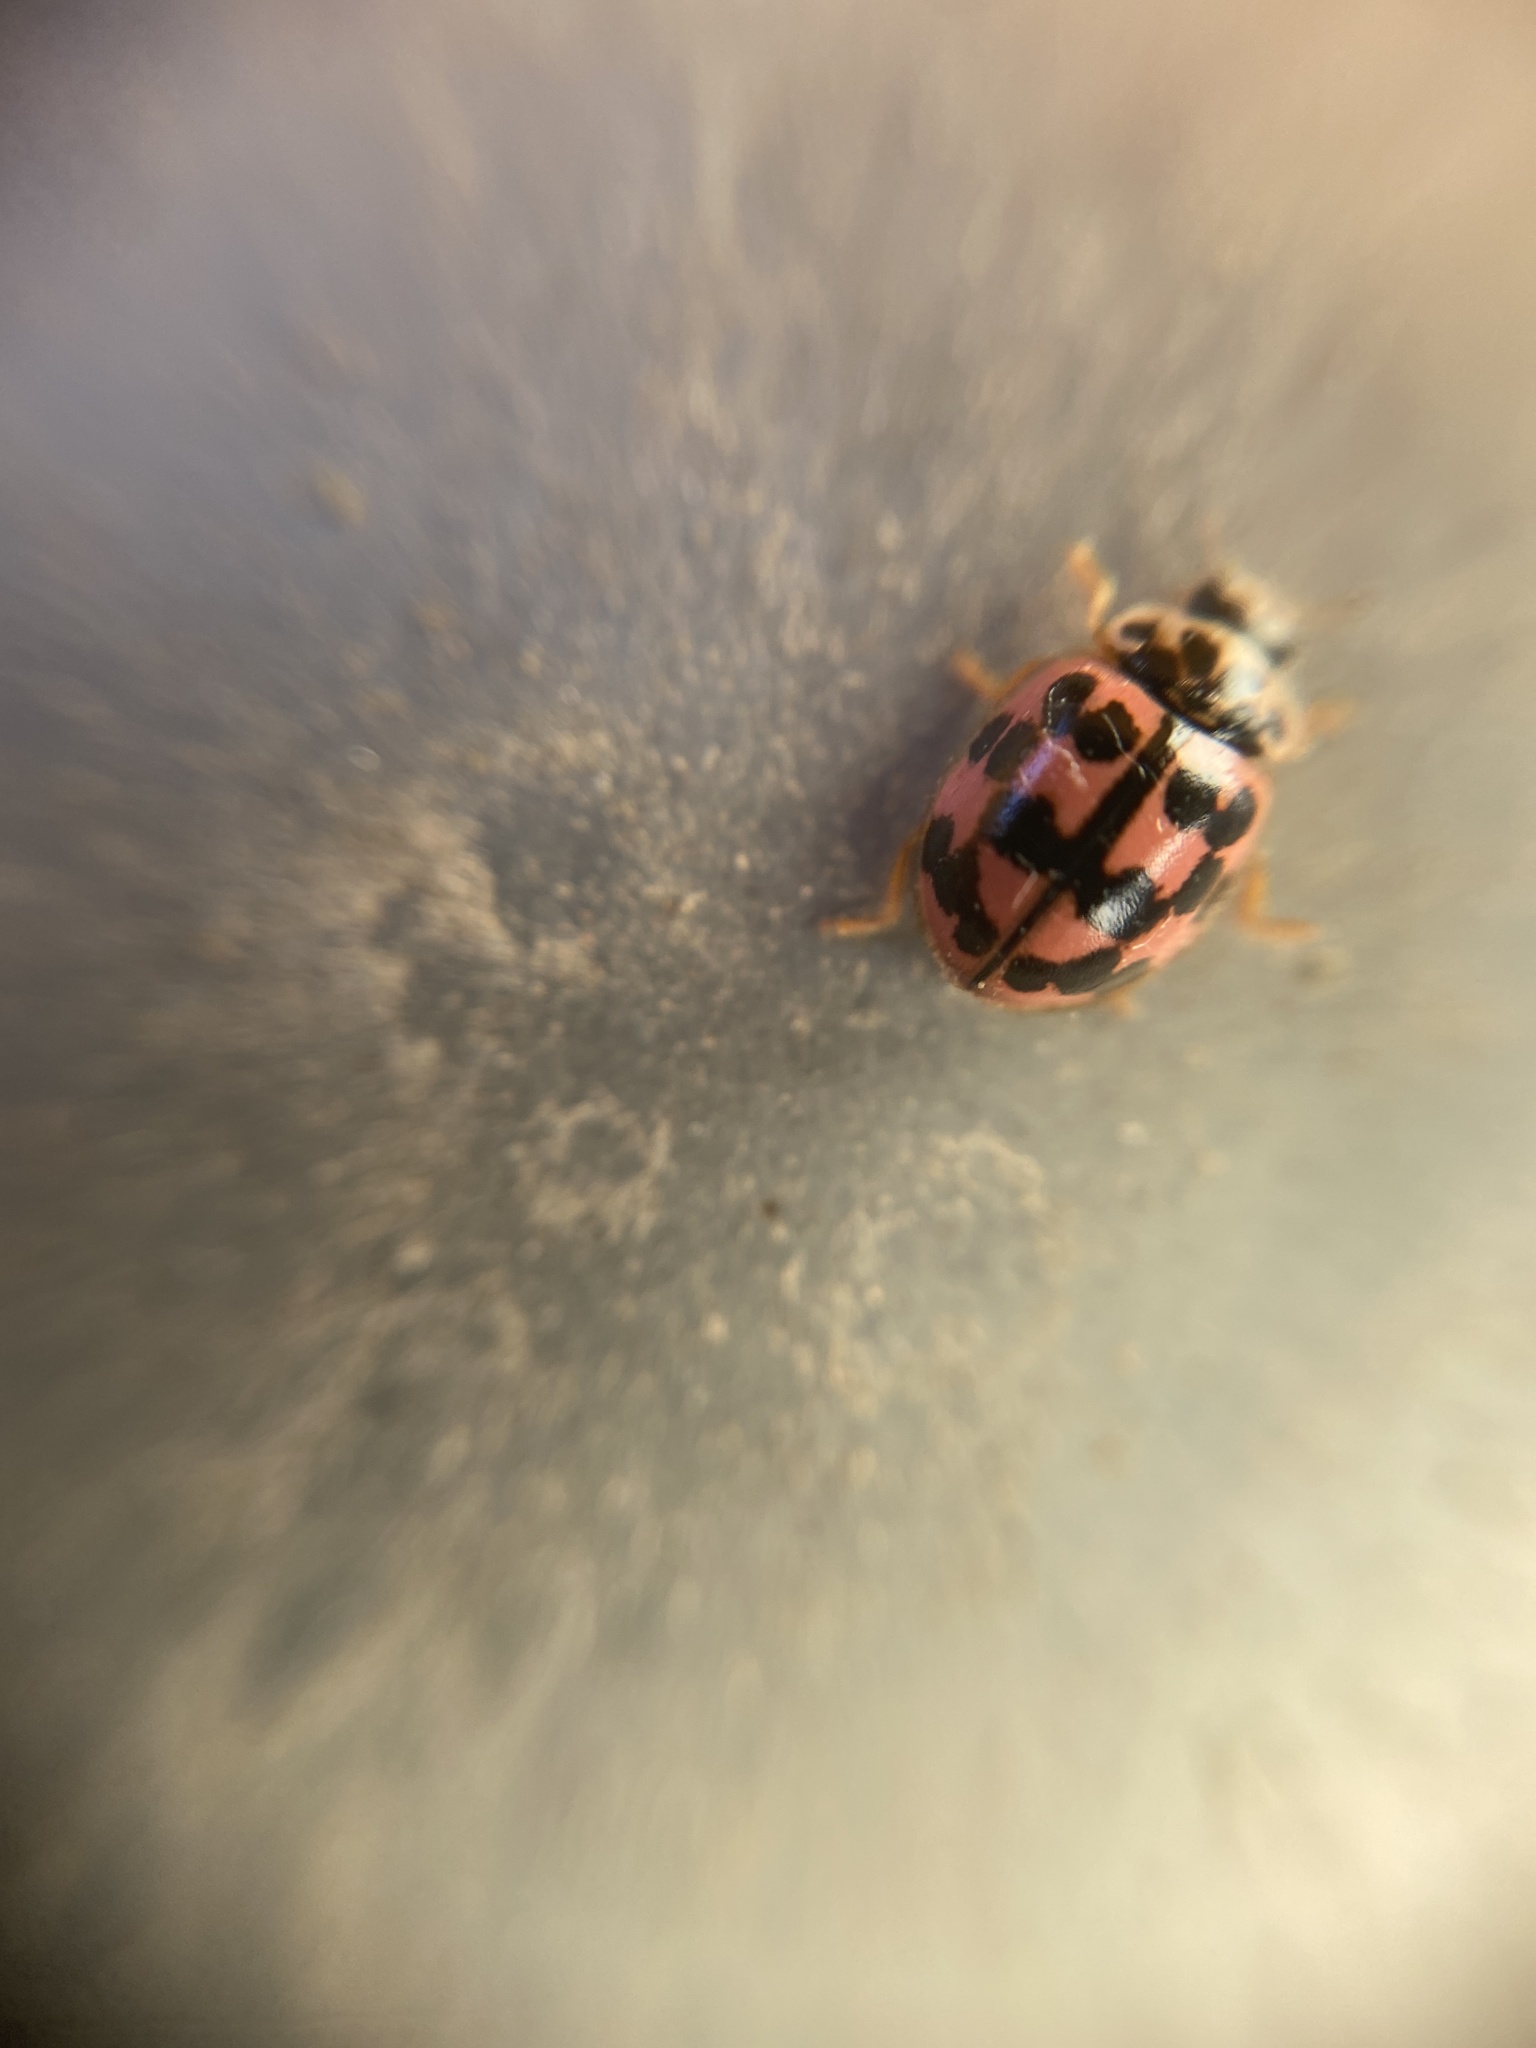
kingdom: Animalia
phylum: Arthropoda
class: Insecta
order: Coleoptera
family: Coccinellidae
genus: Oenopia
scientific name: Oenopia conglobata
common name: Ladybird beetle
